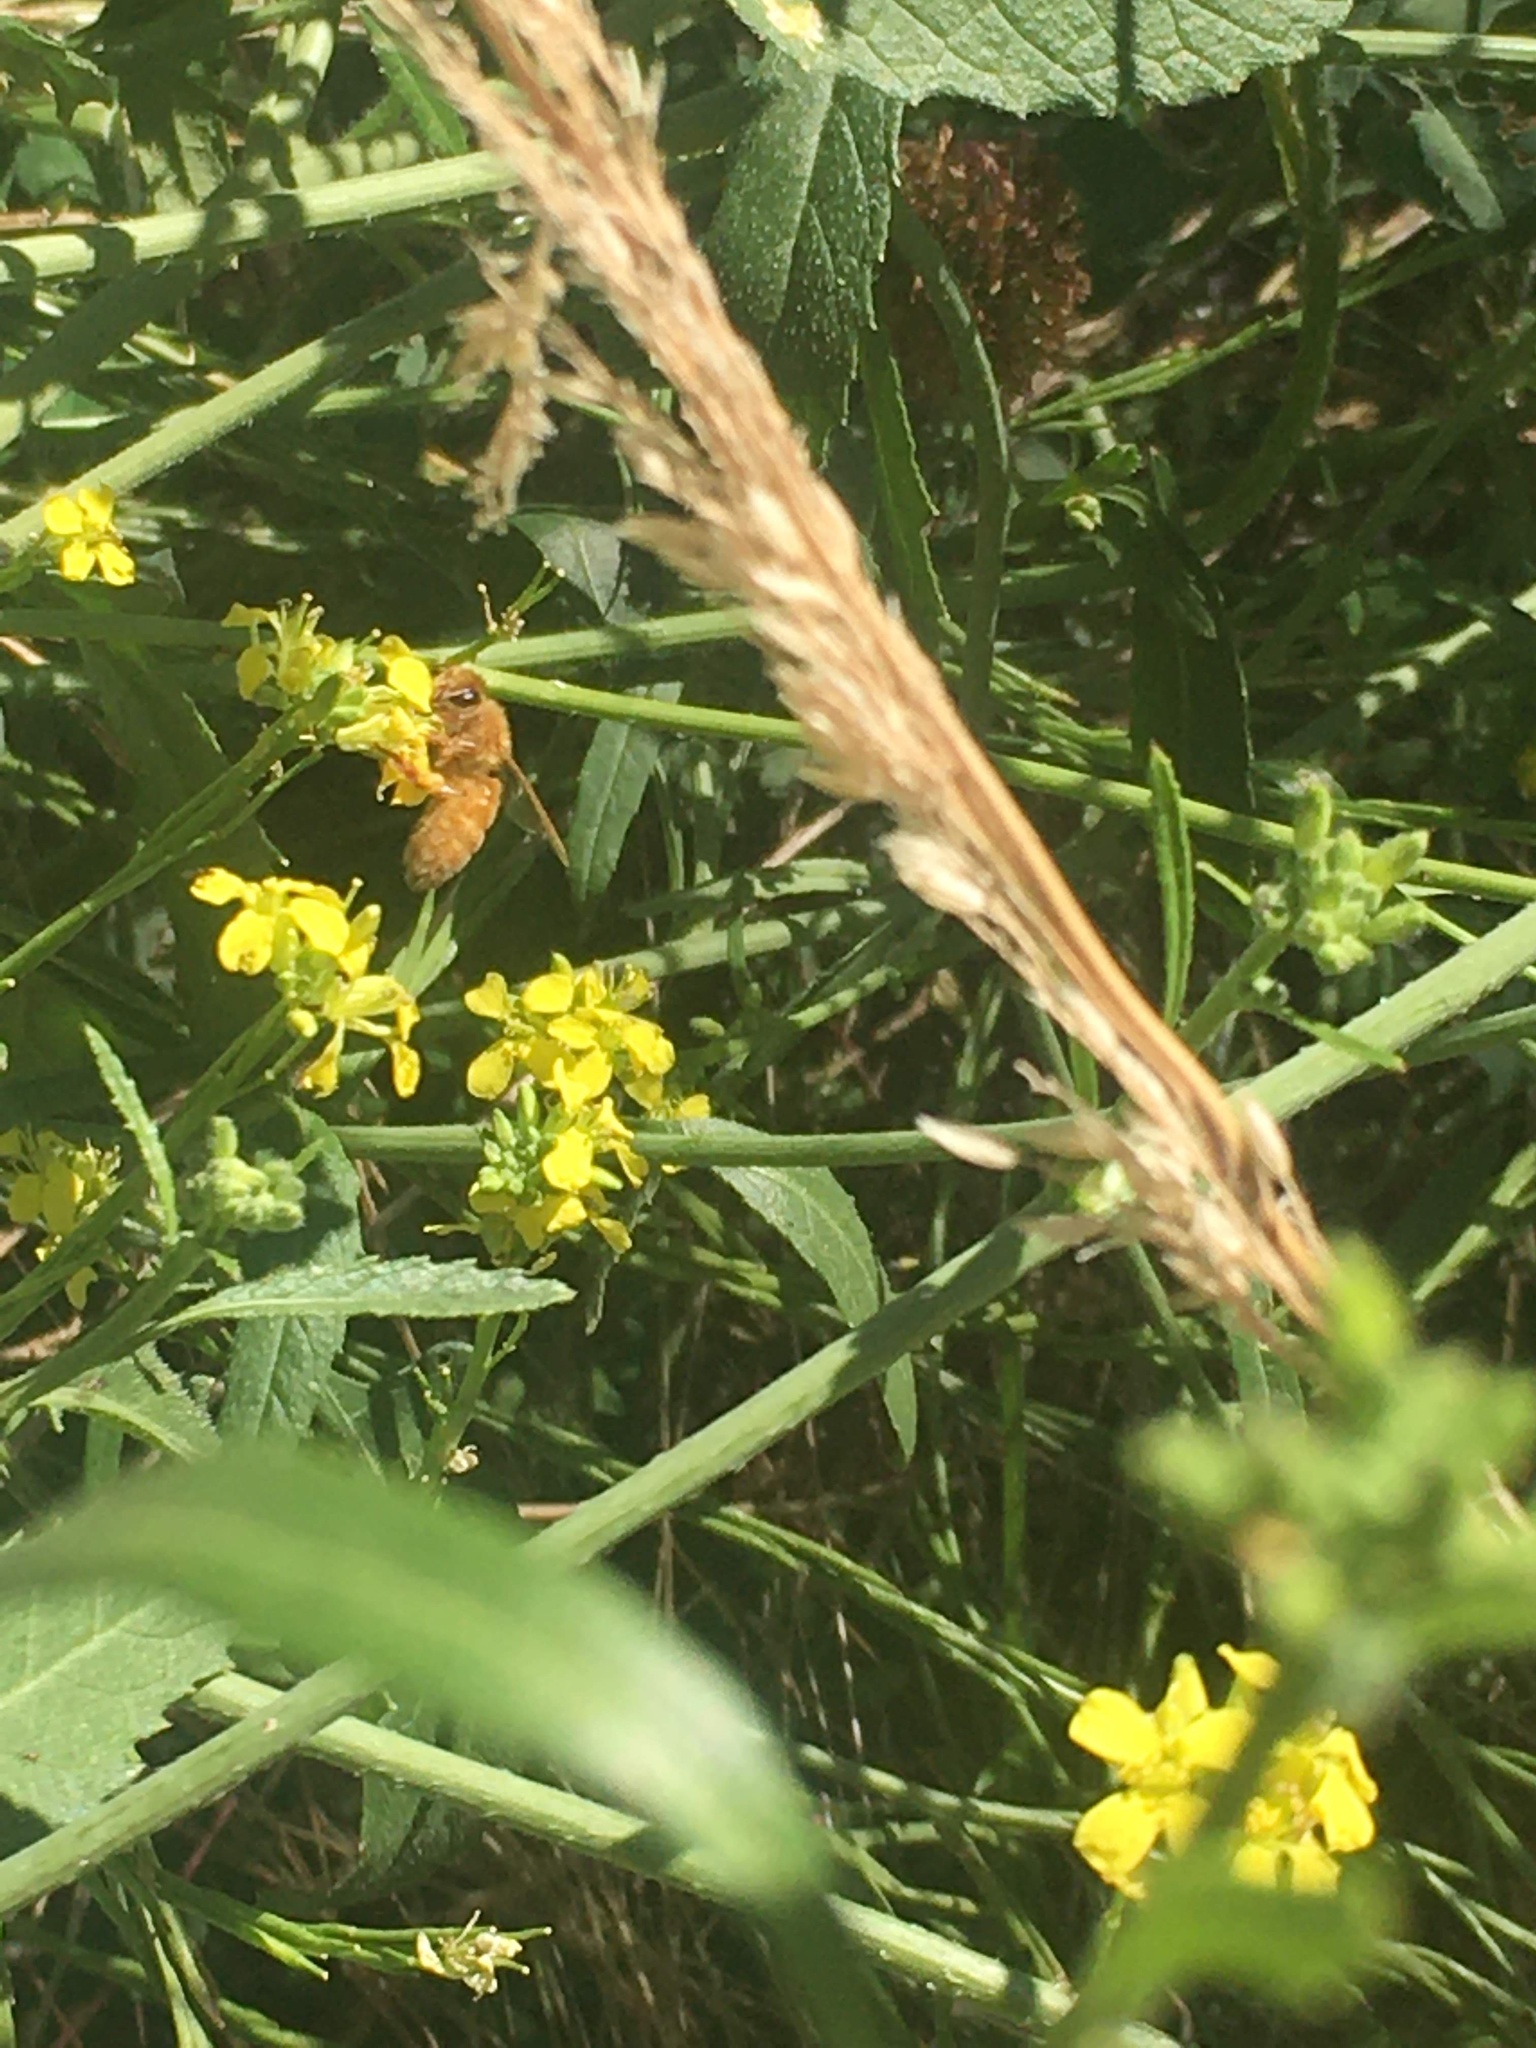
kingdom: Animalia
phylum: Arthropoda
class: Insecta
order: Hymenoptera
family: Apidae
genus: Apis
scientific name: Apis mellifera
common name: Honey bee
